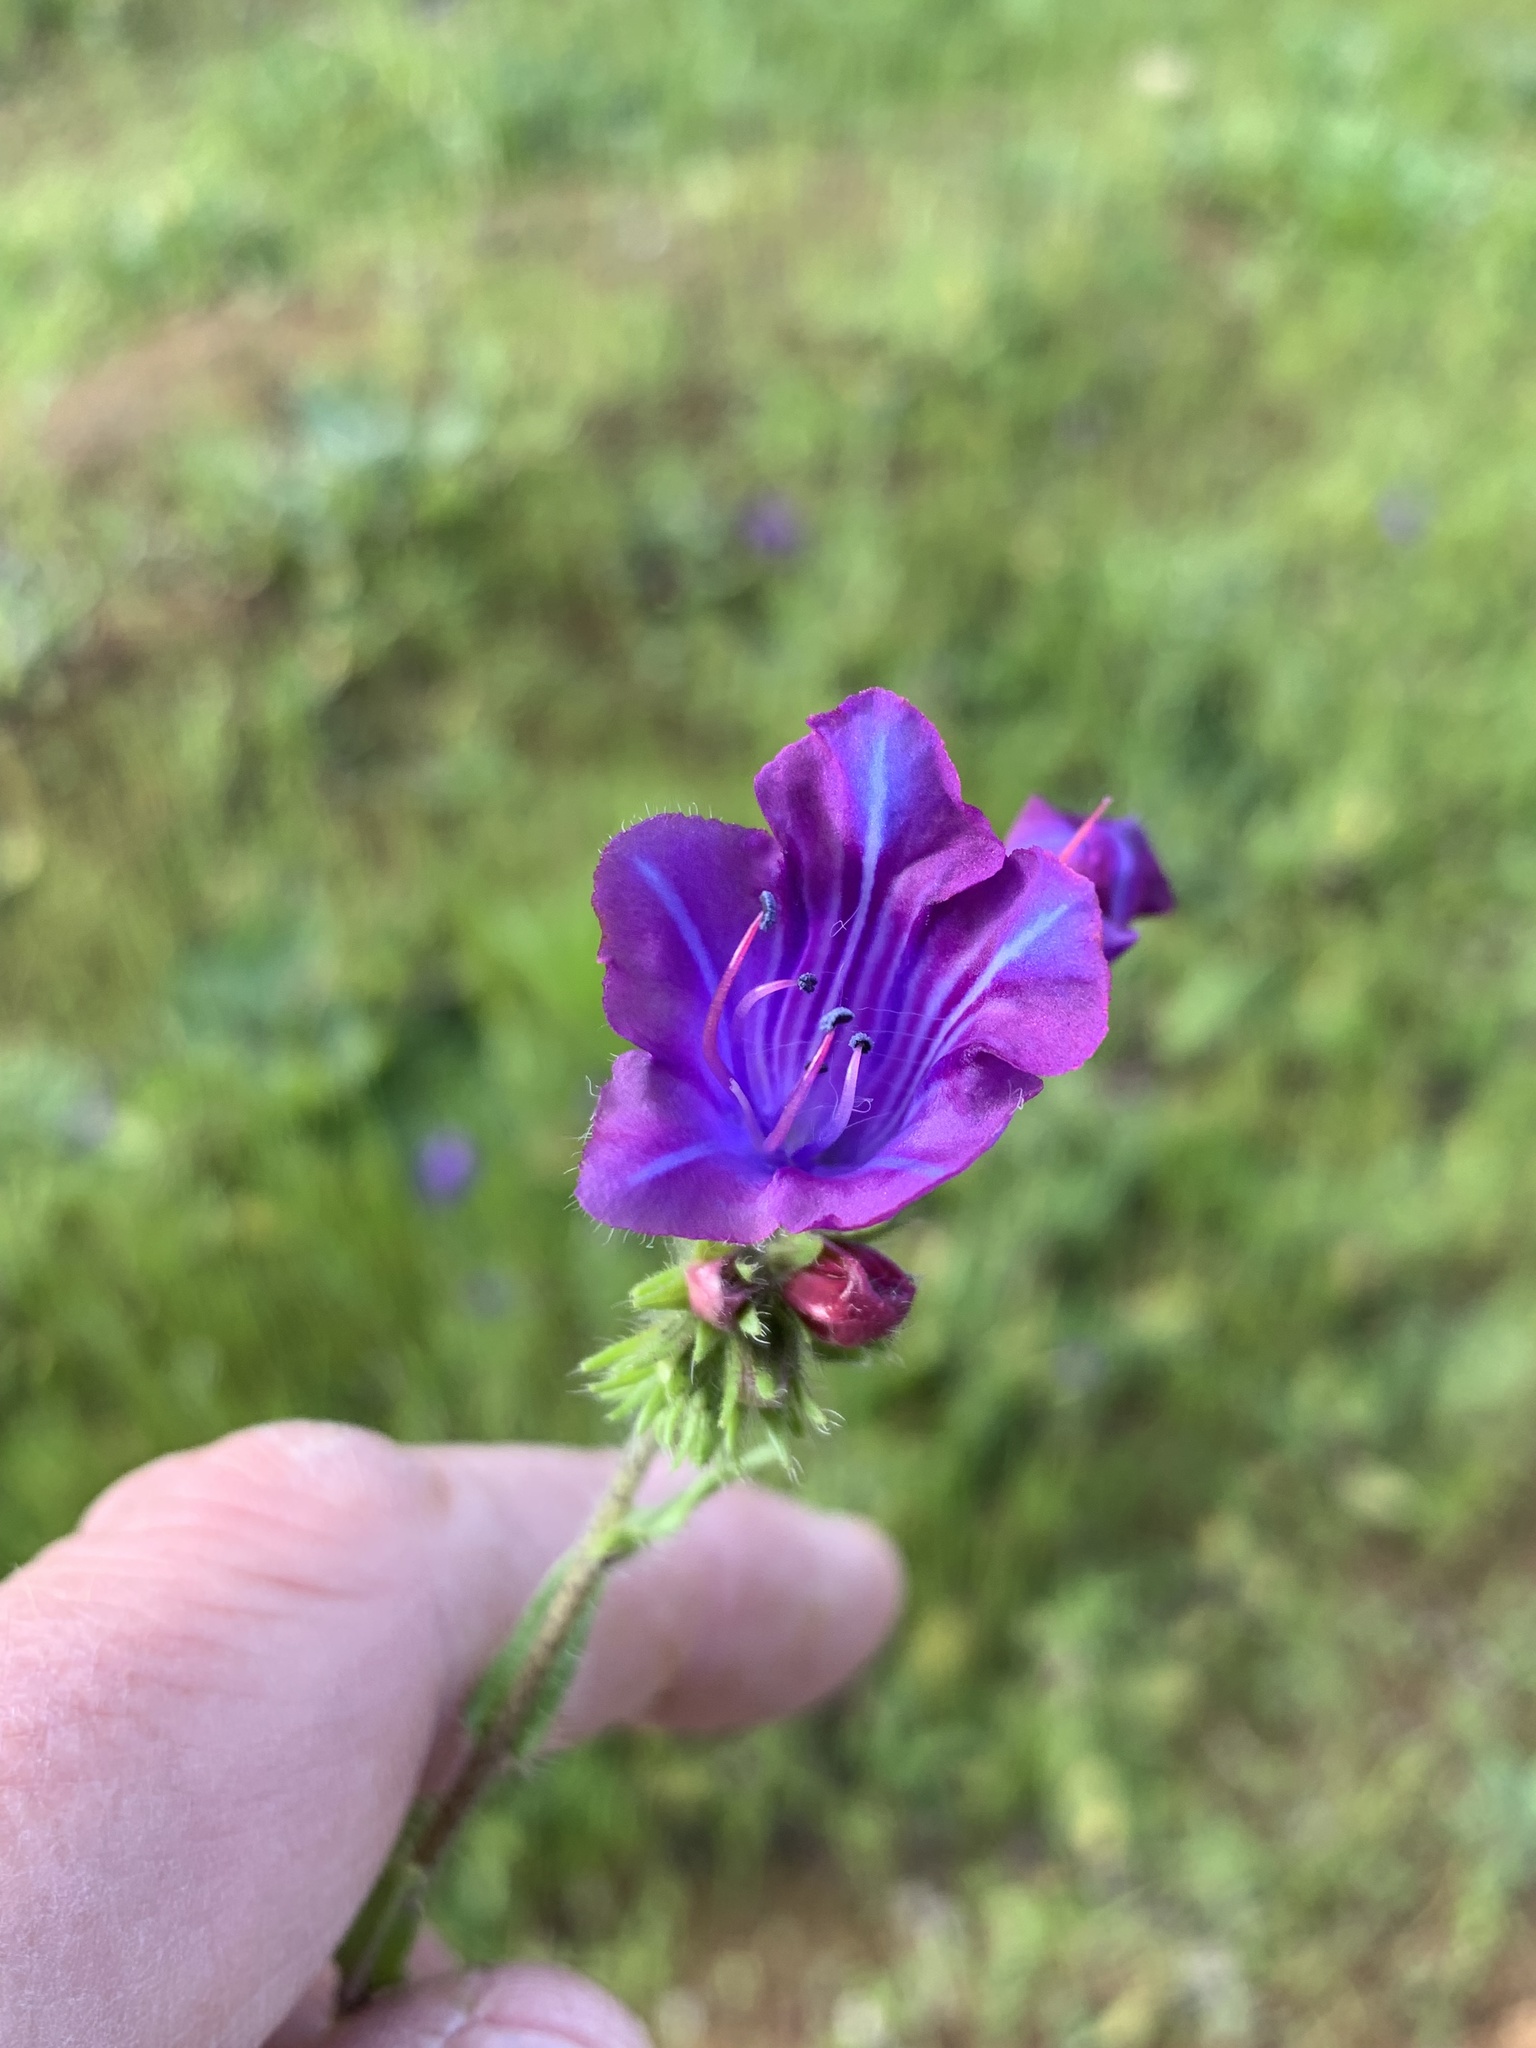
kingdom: Plantae
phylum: Tracheophyta
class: Magnoliopsida
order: Boraginales
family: Boraginaceae
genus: Echium
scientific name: Echium plantagineum
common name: Purple viper's-bugloss
